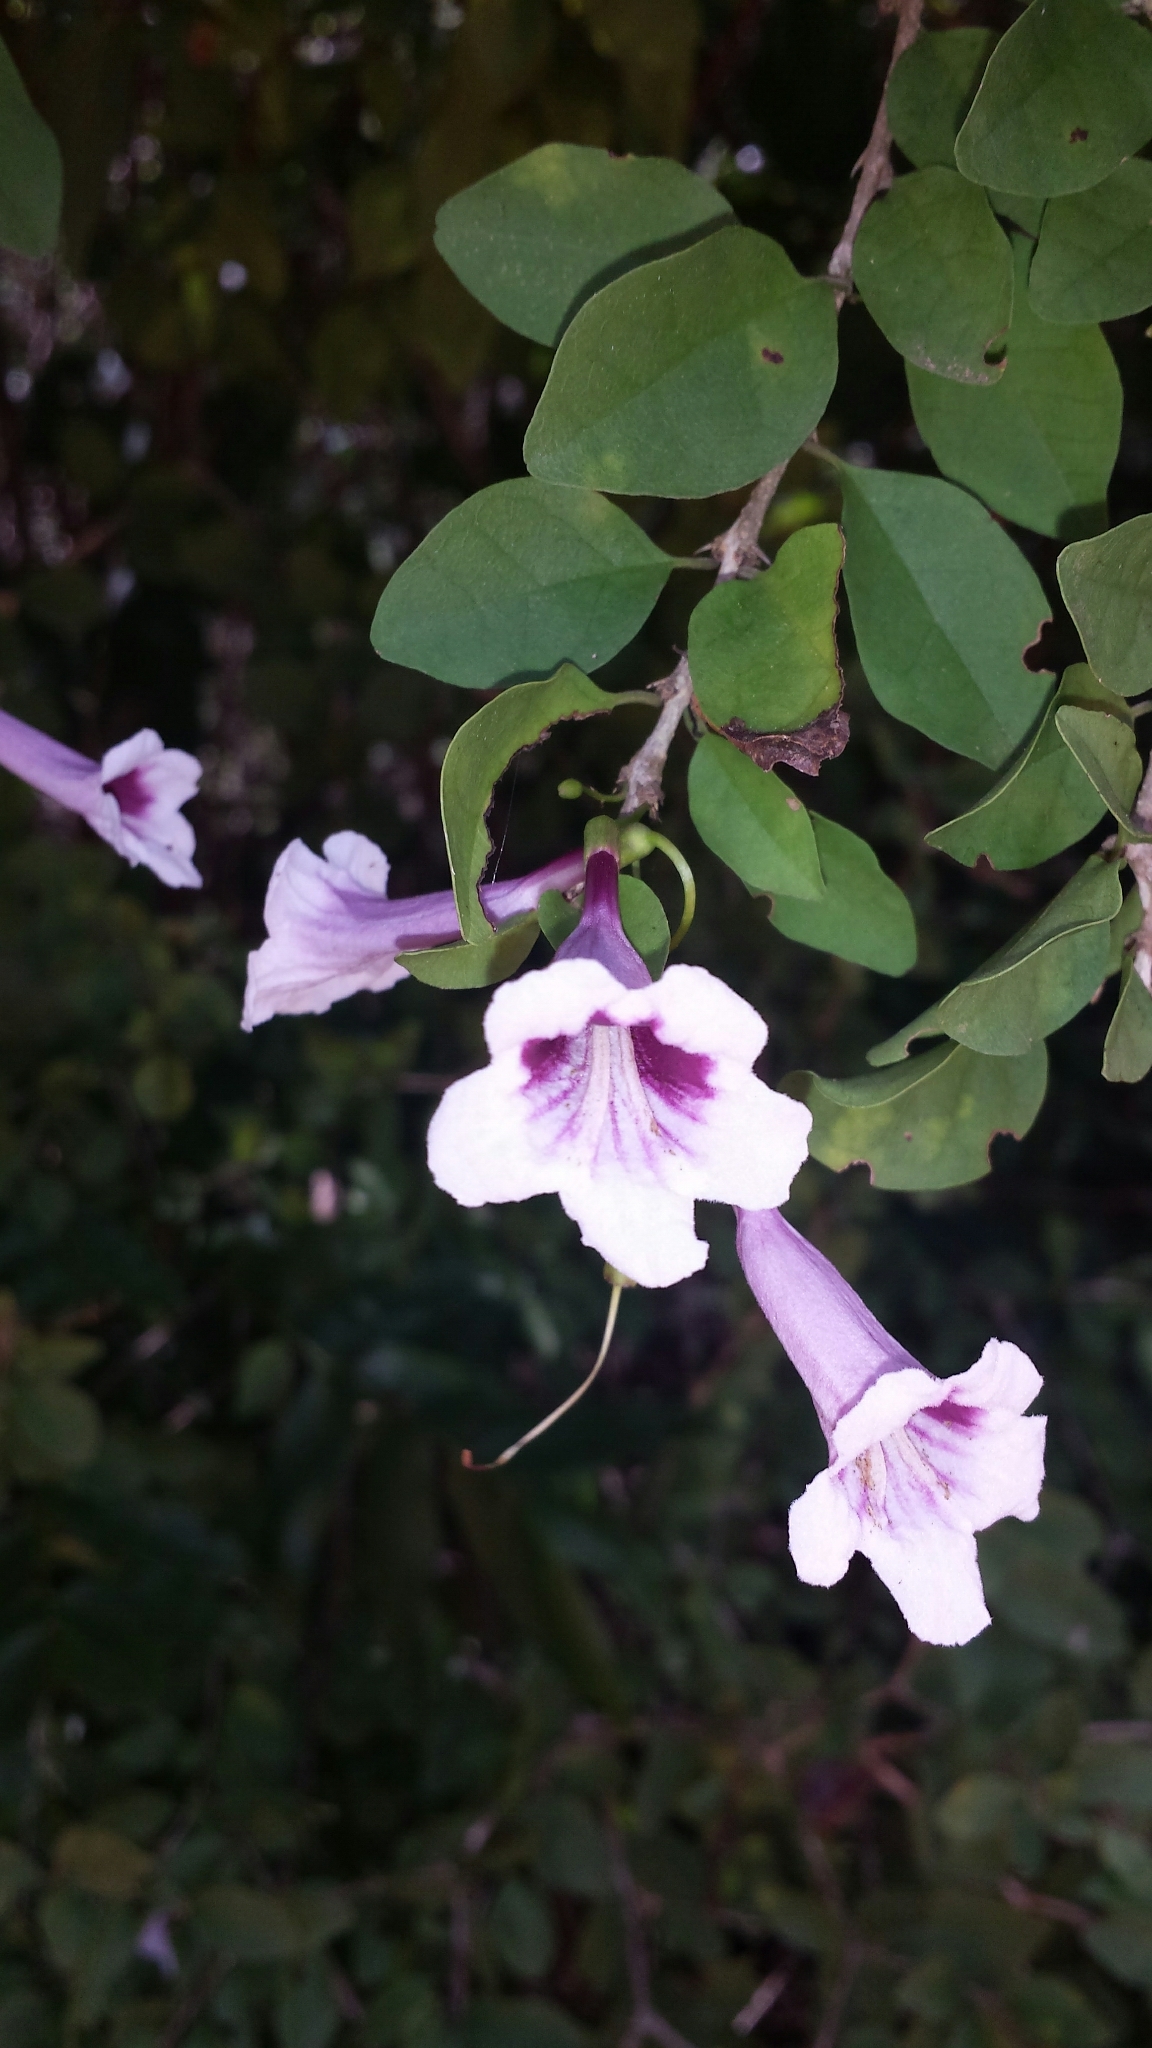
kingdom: Plantae
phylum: Tracheophyta
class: Magnoliopsida
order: Lamiales
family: Bignoniaceae
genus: Phylloctenium
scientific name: Phylloctenium bernieri
